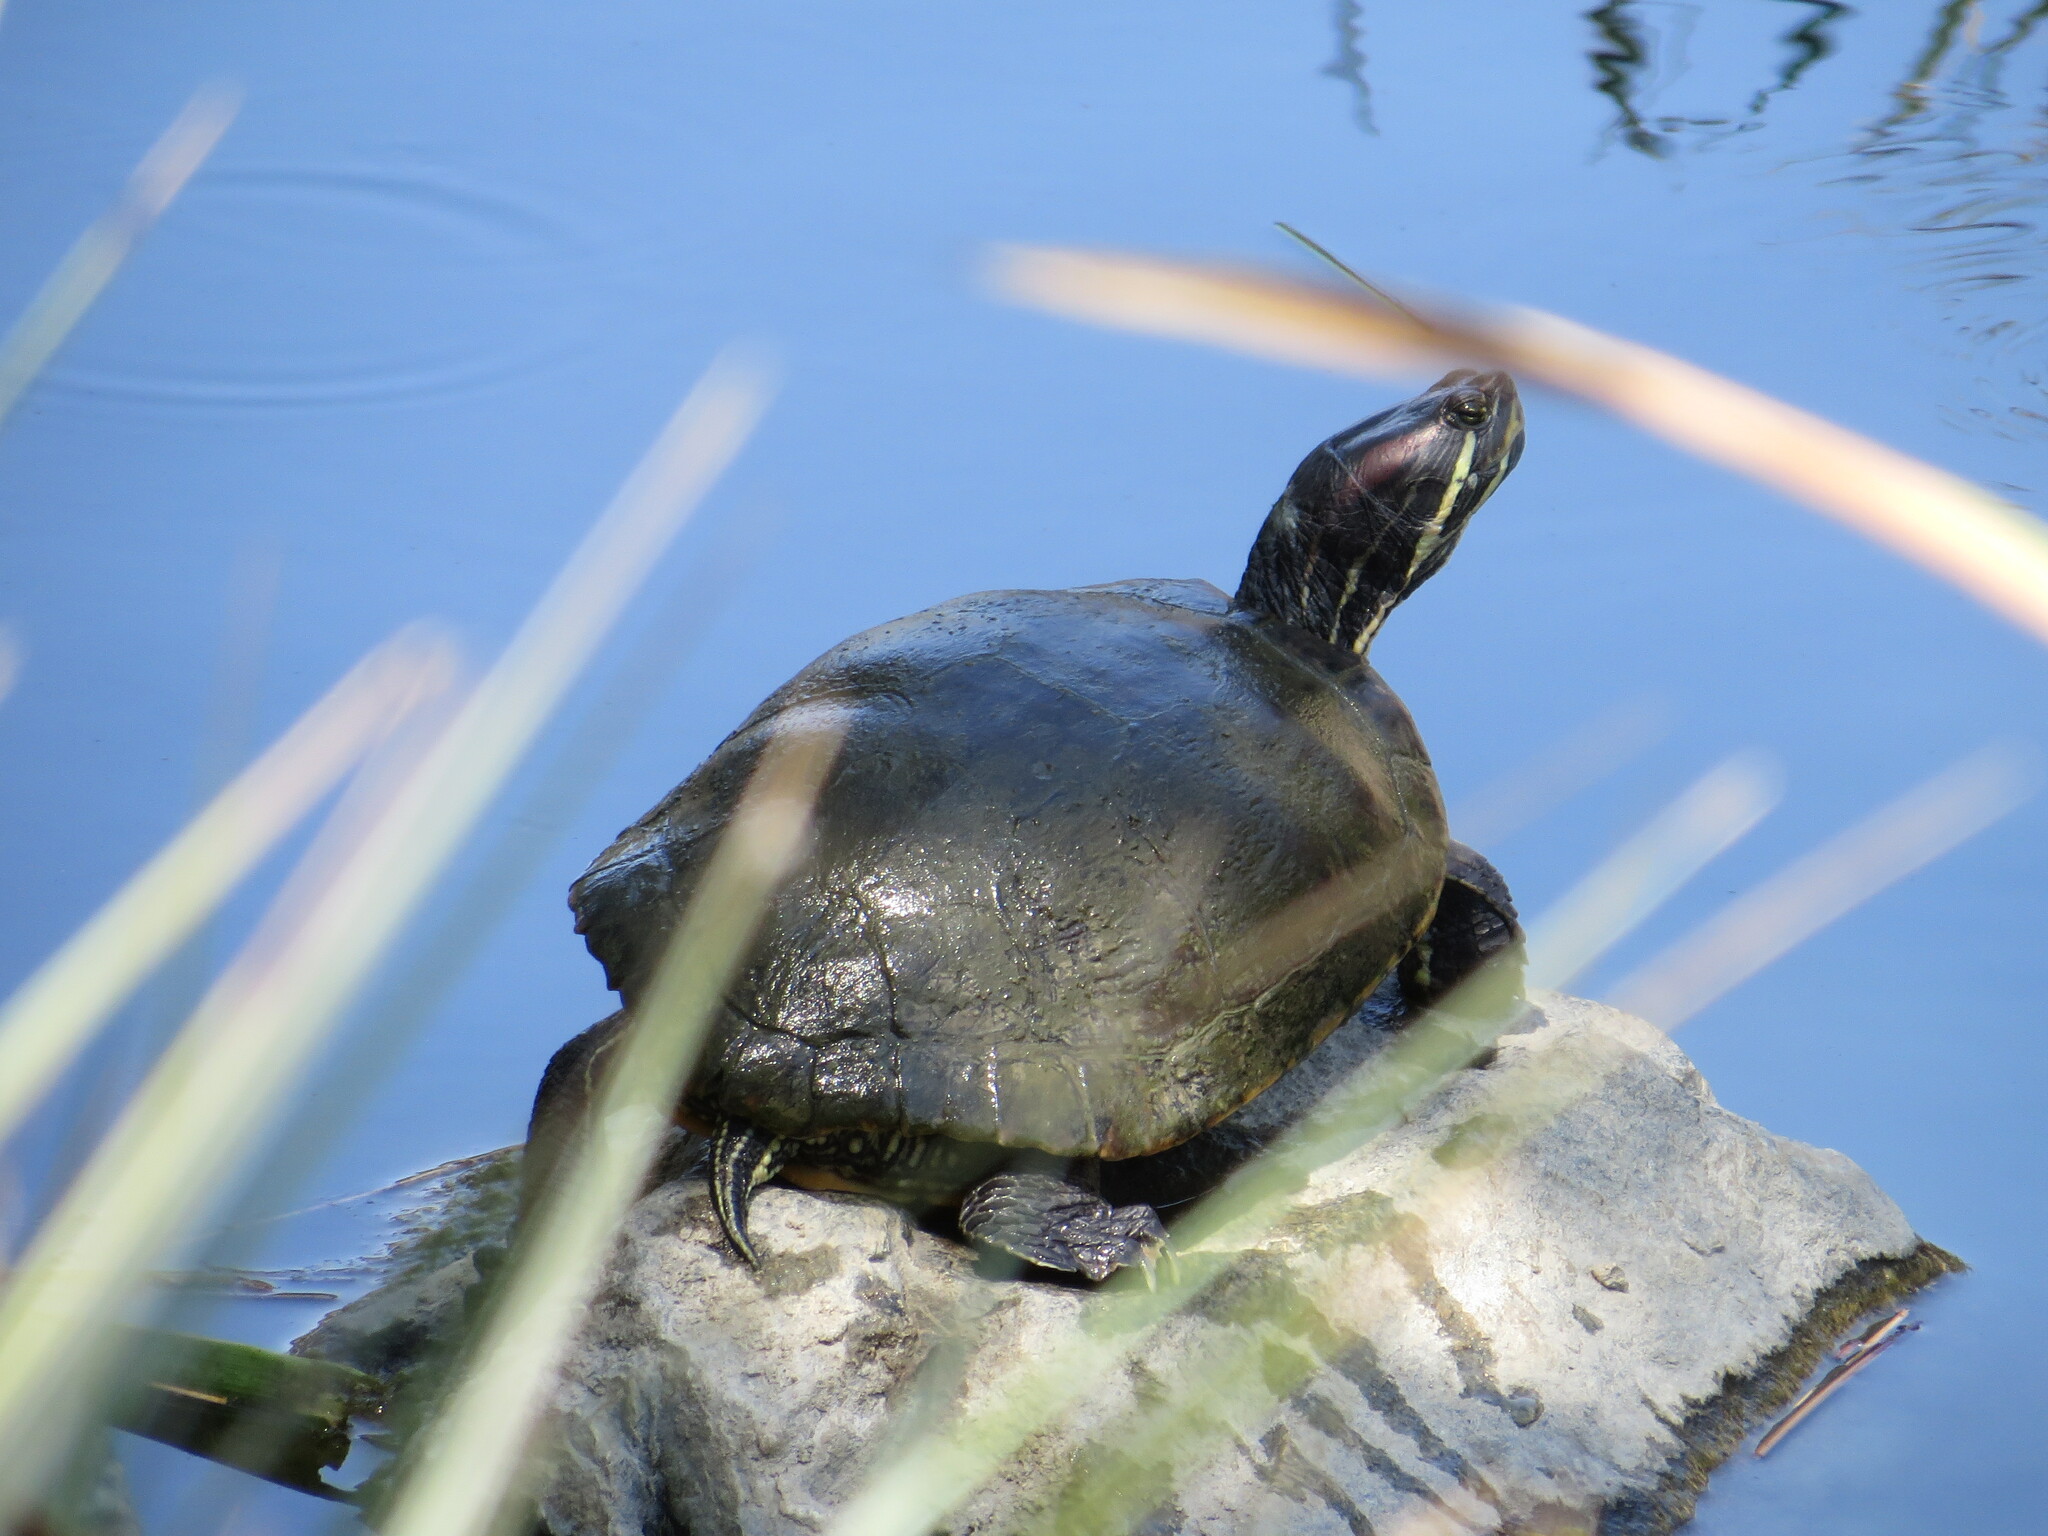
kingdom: Animalia
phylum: Chordata
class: Testudines
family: Emydidae
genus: Trachemys
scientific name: Trachemys scripta
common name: Slider
